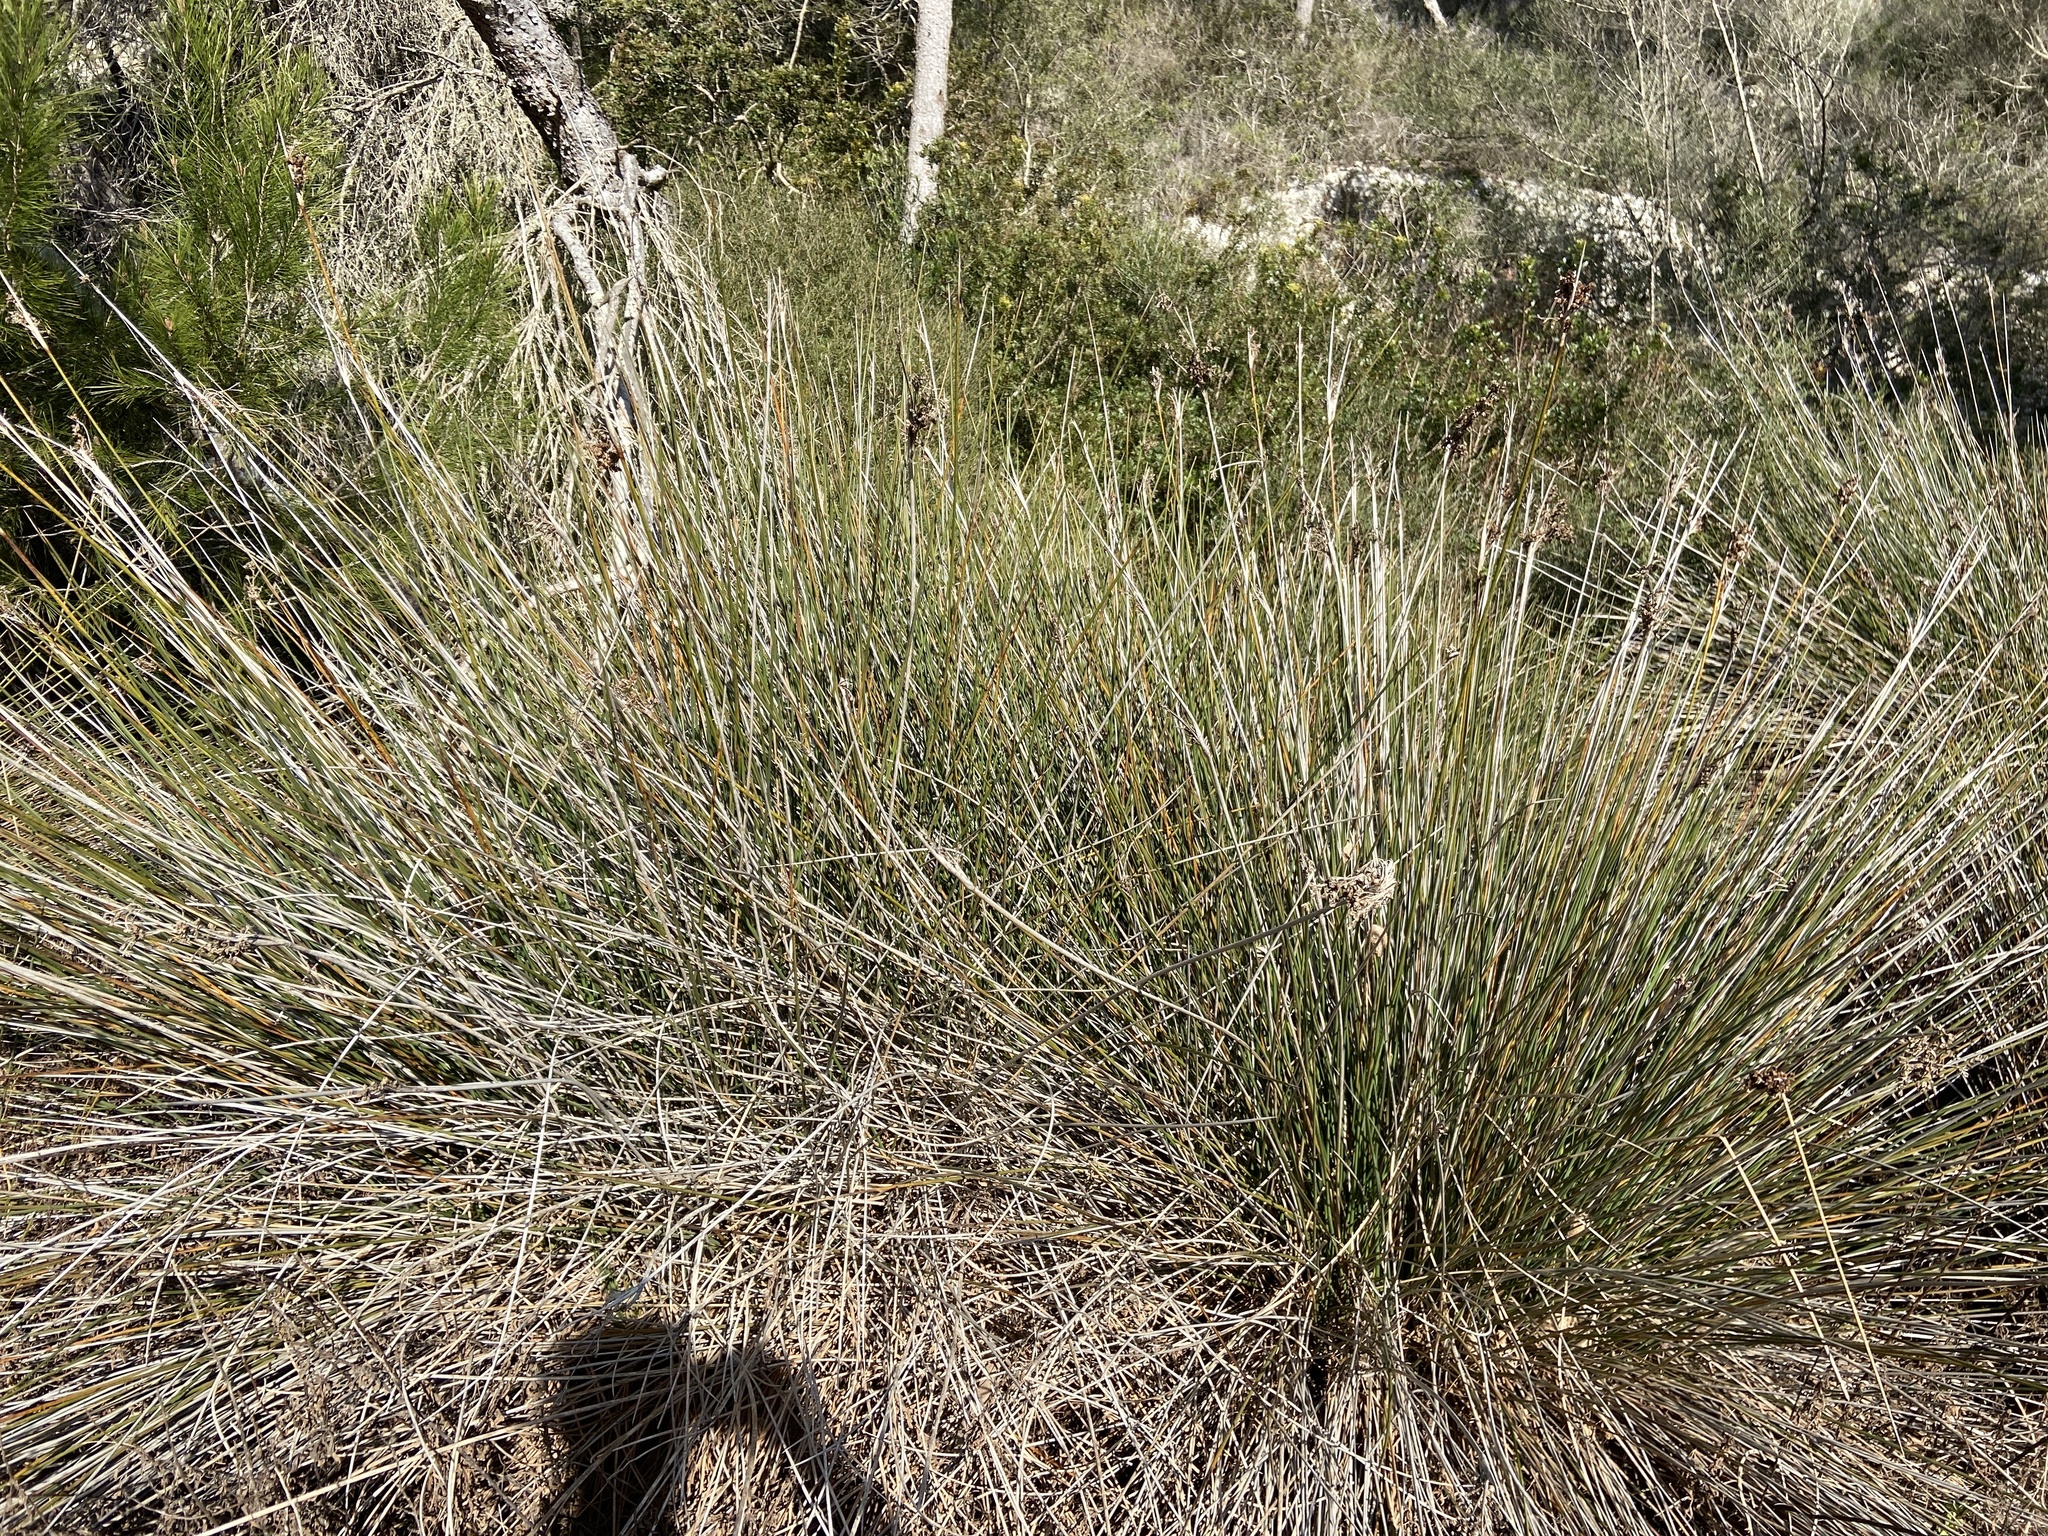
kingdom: Plantae
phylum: Tracheophyta
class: Liliopsida
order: Poales
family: Juncaceae
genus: Juncus
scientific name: Juncus acutus
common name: Sharp rush
